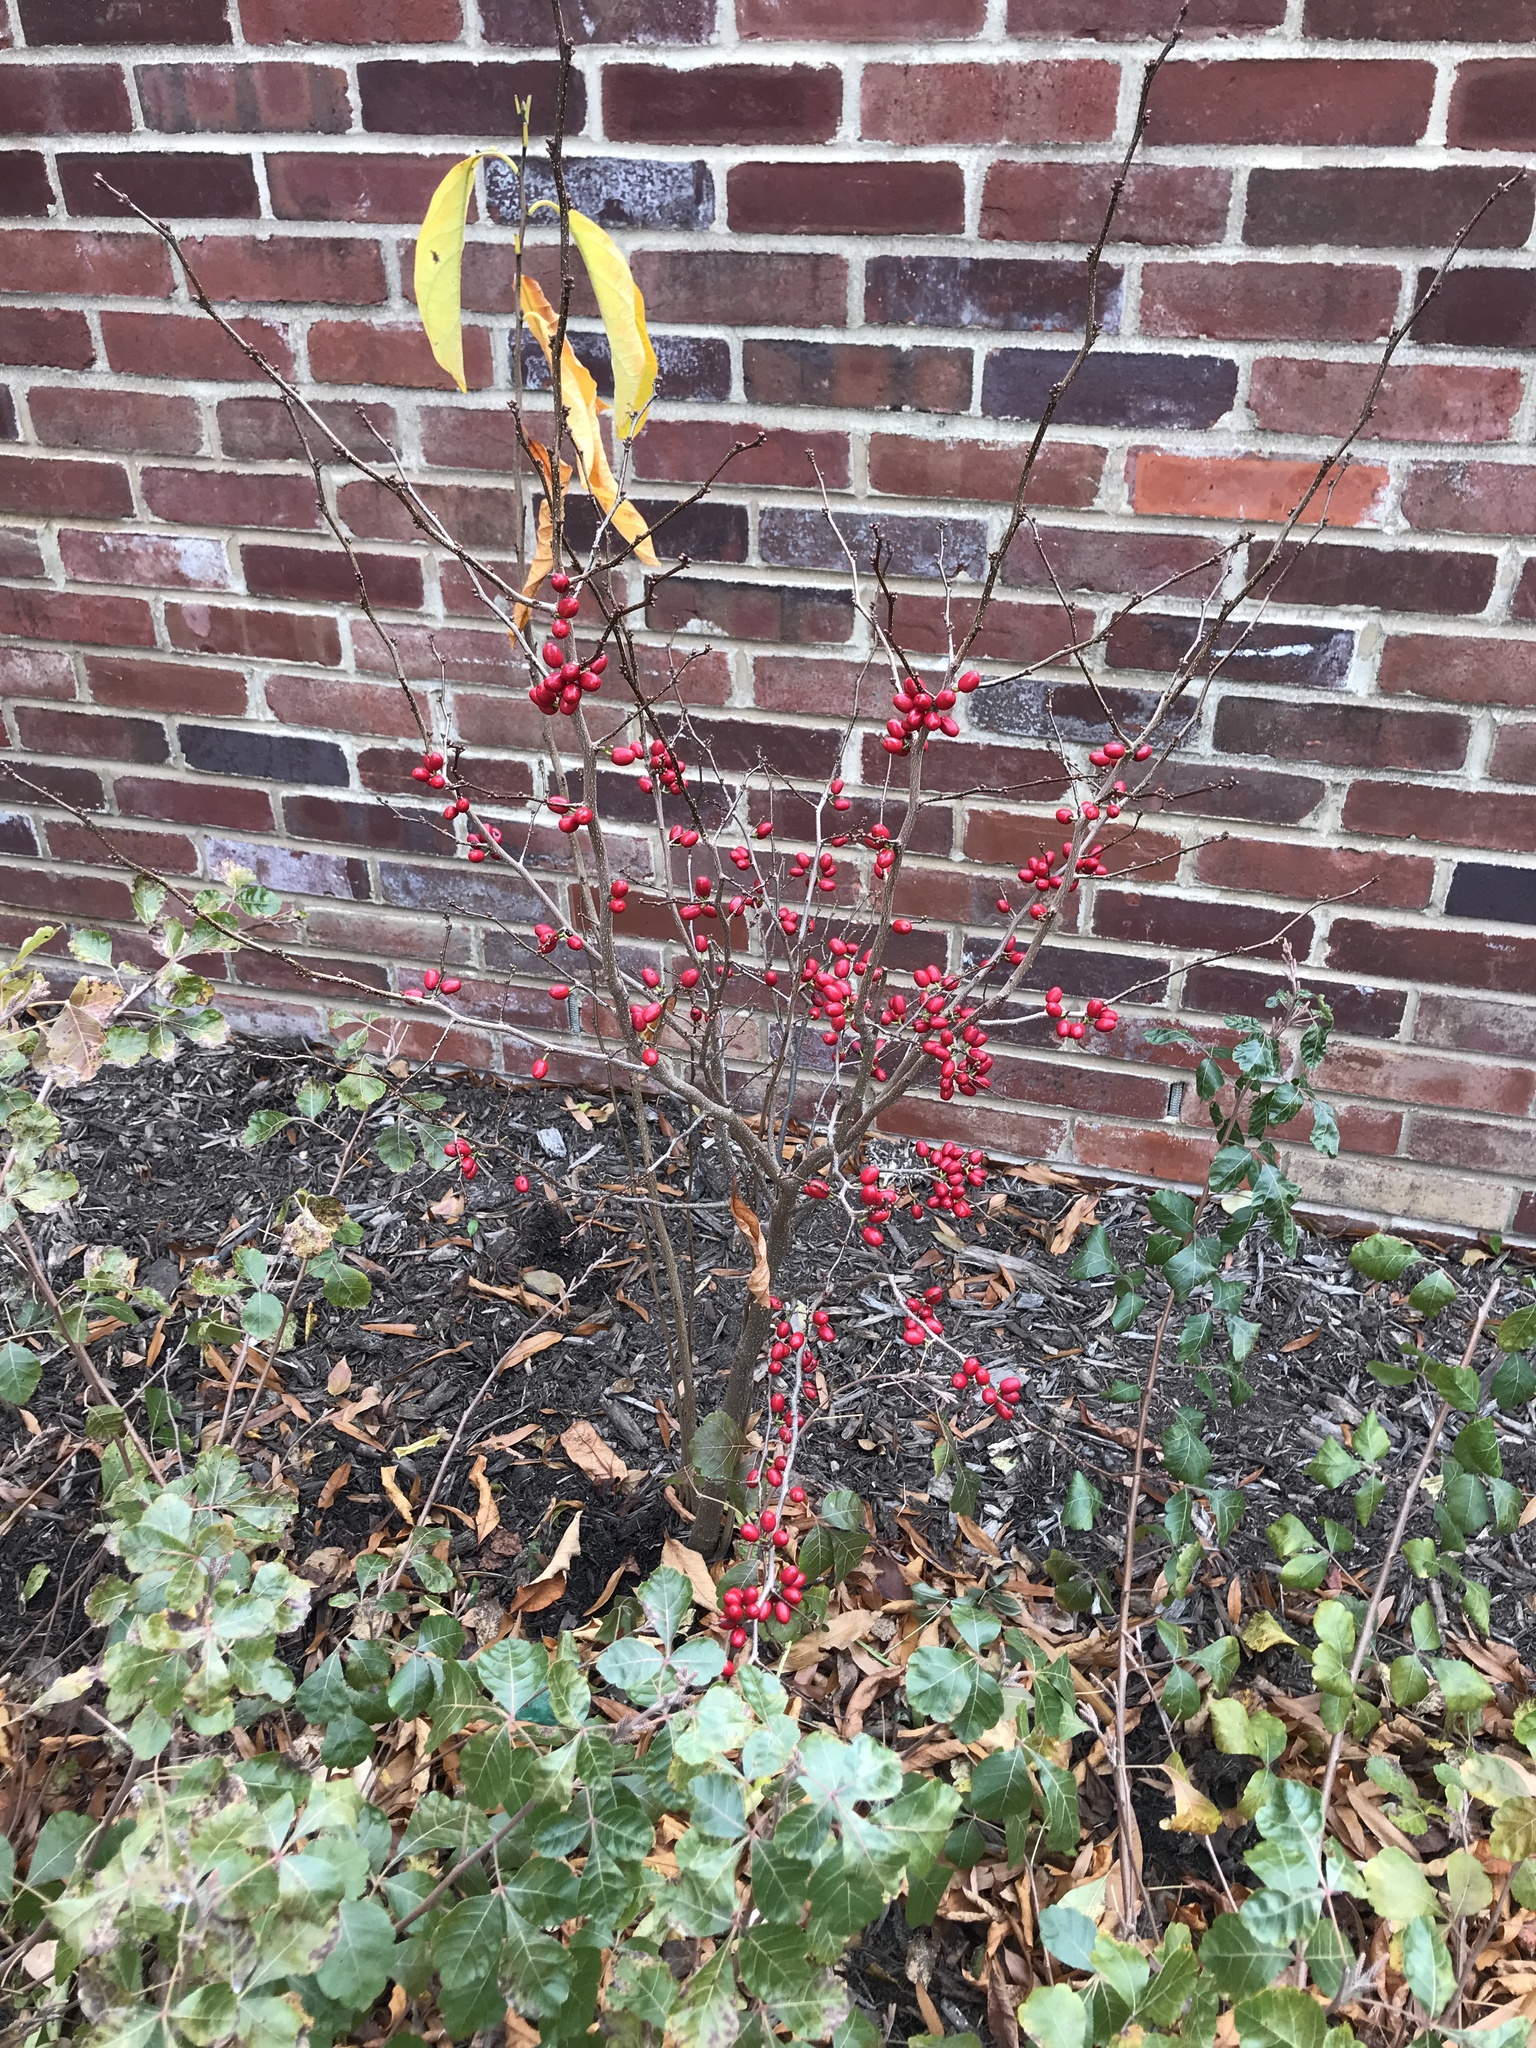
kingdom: Plantae
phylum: Tracheophyta
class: Magnoliopsida
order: Laurales
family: Lauraceae
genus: Lindera
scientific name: Lindera benzoin
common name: Spicebush
